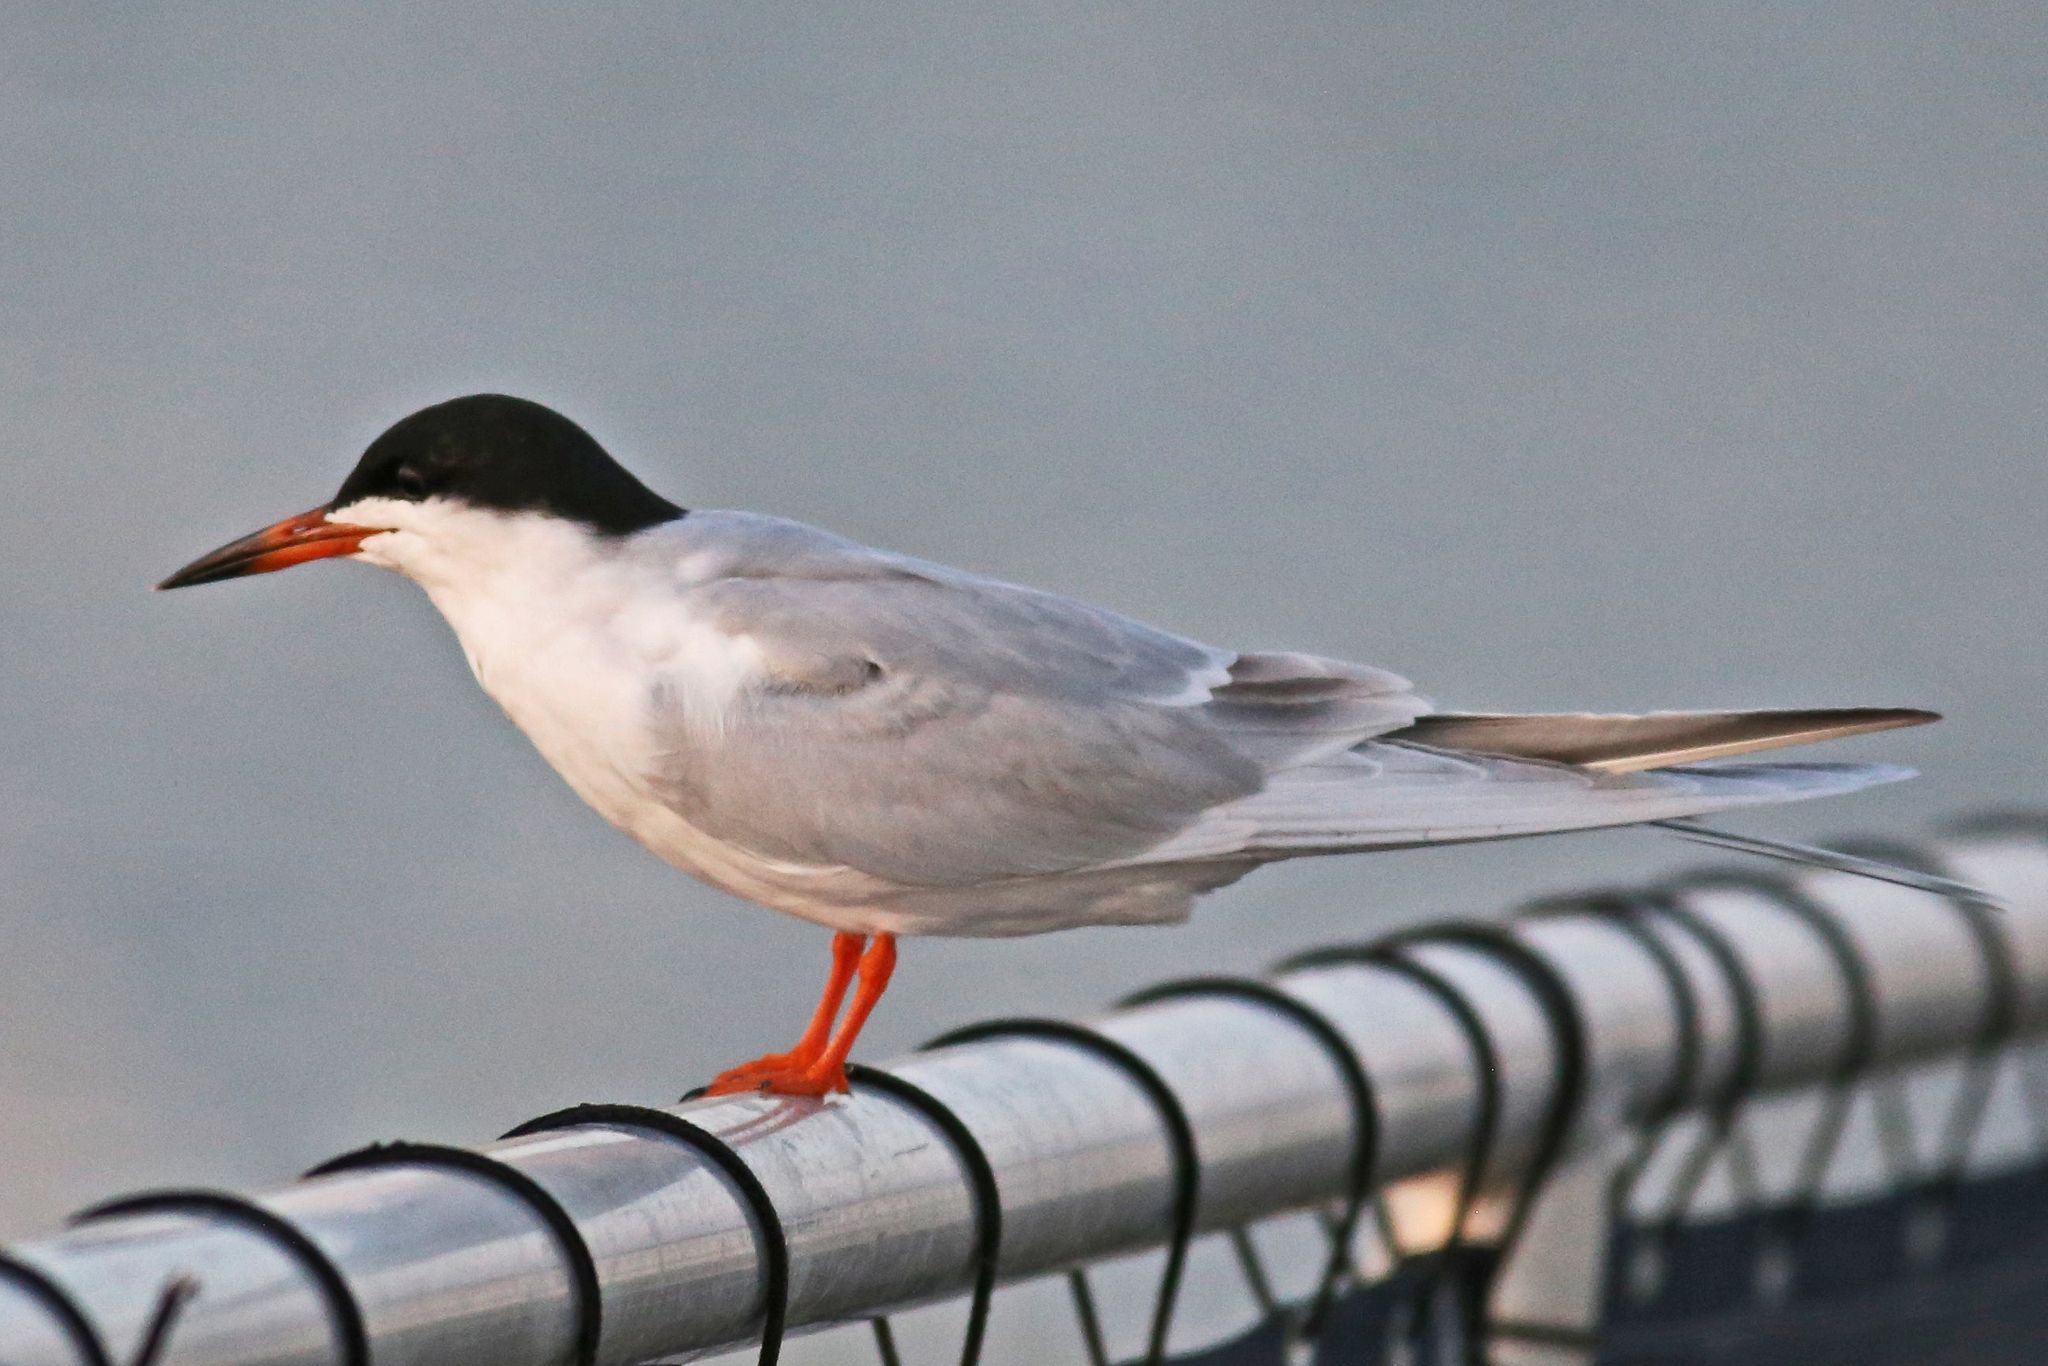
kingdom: Animalia
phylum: Chordata
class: Aves
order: Charadriiformes
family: Laridae
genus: Sterna
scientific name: Sterna forsteri
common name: Forster's tern
